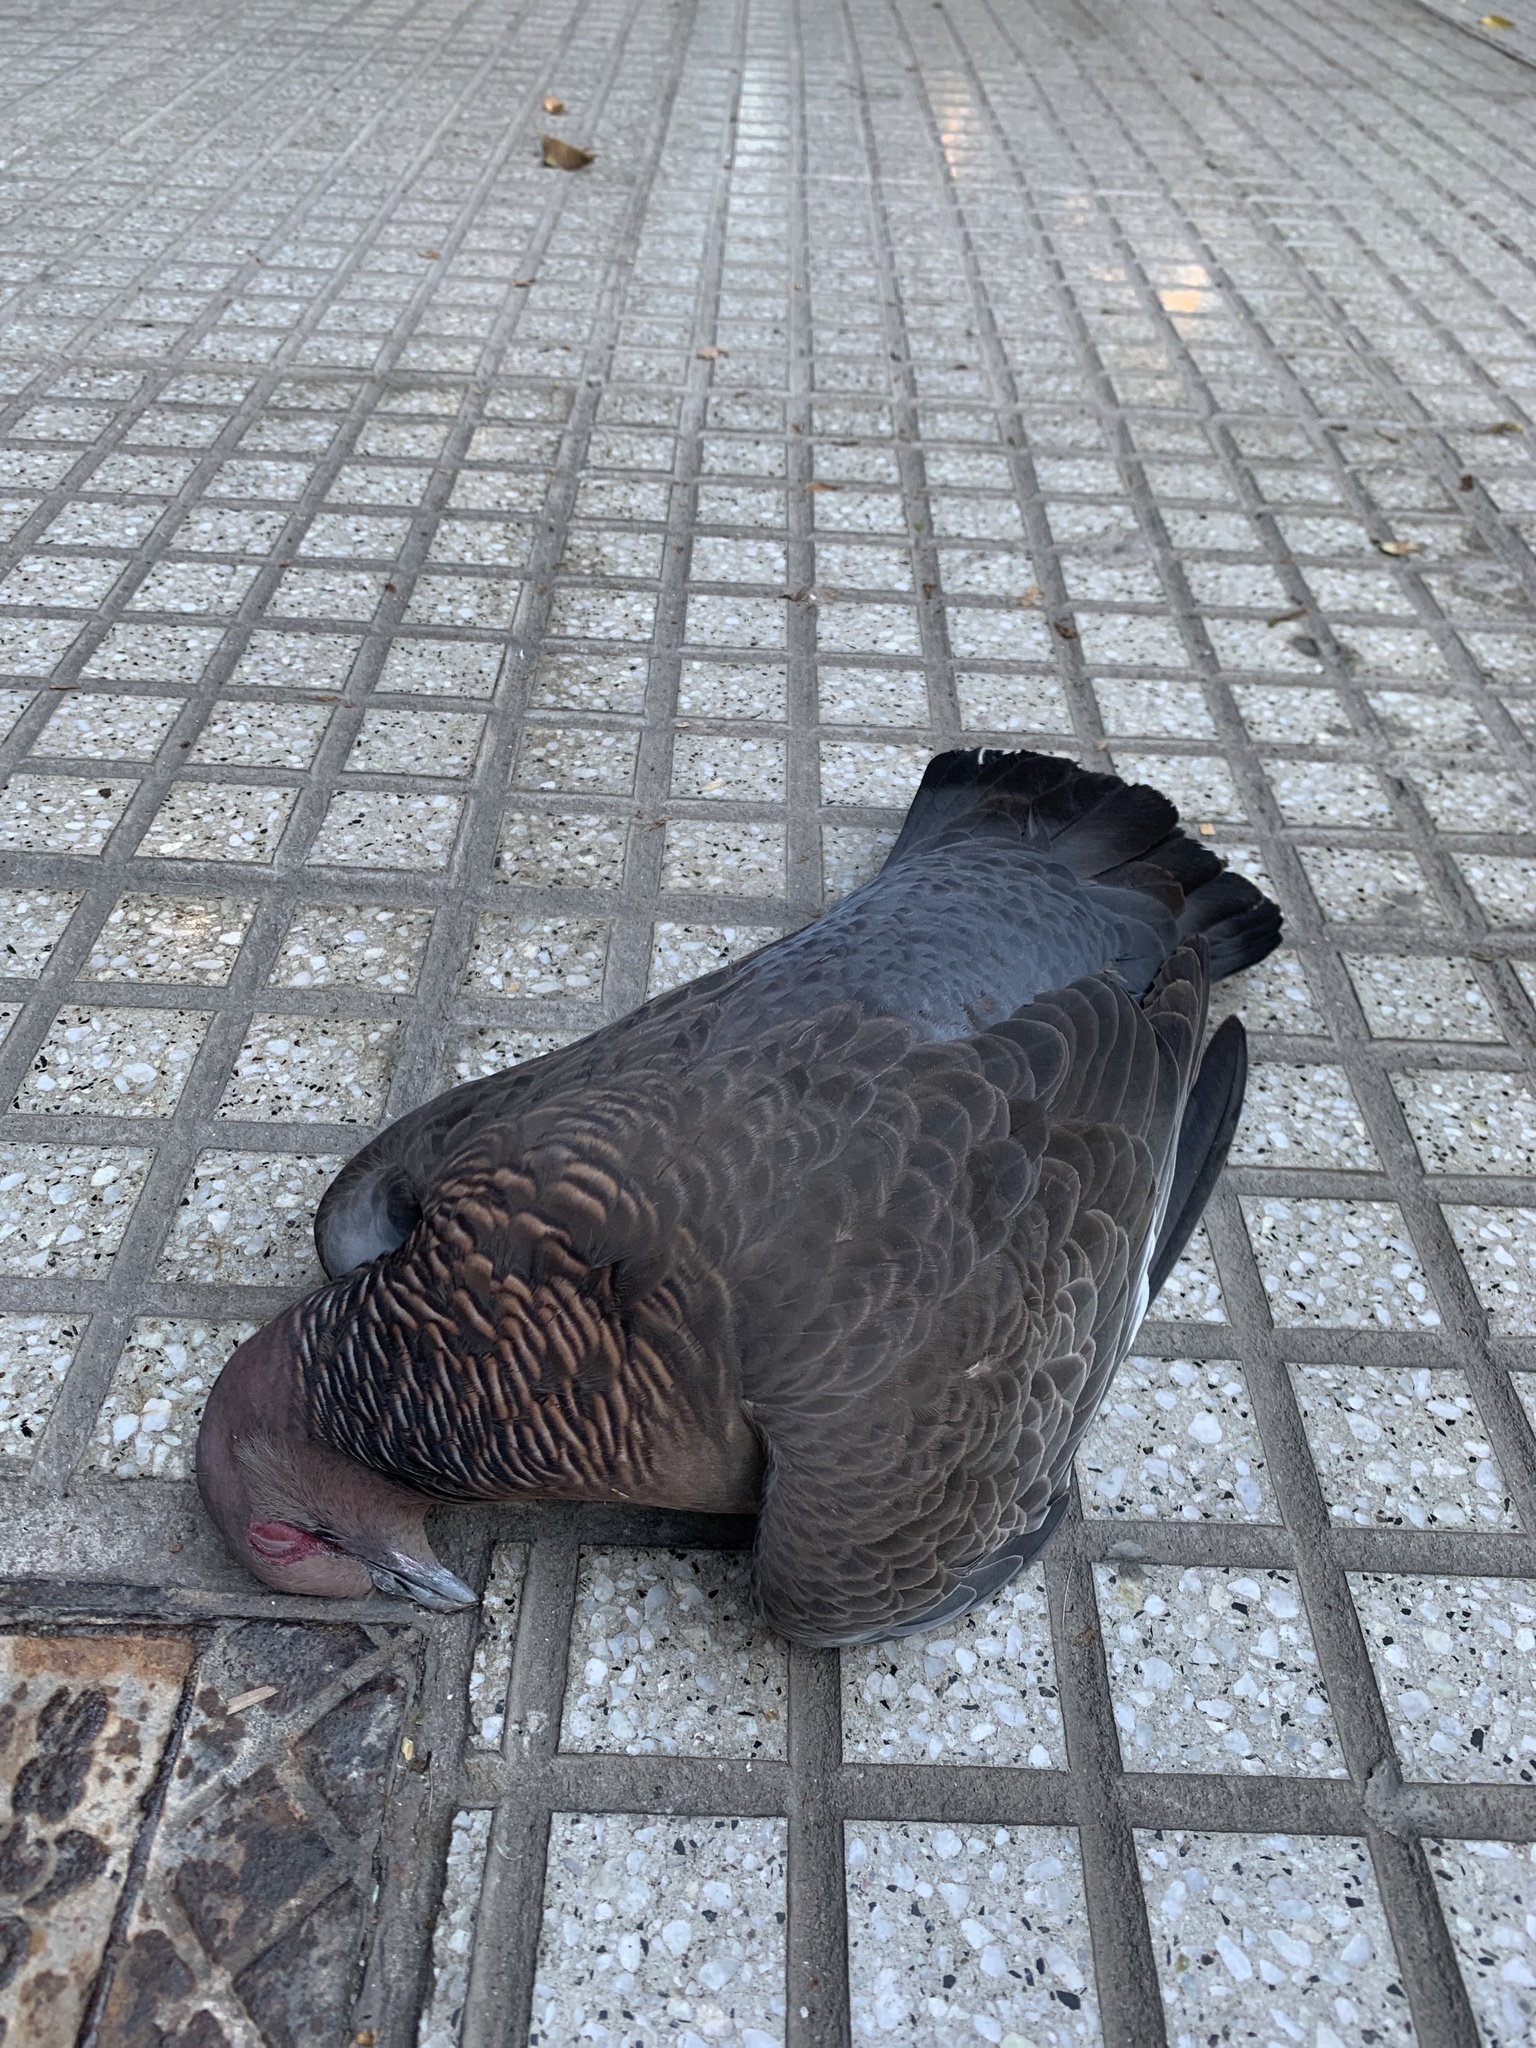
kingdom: Animalia
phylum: Chordata
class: Aves
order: Columbiformes
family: Columbidae
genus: Patagioenas
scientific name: Patagioenas picazuro
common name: Picazuro pigeon
